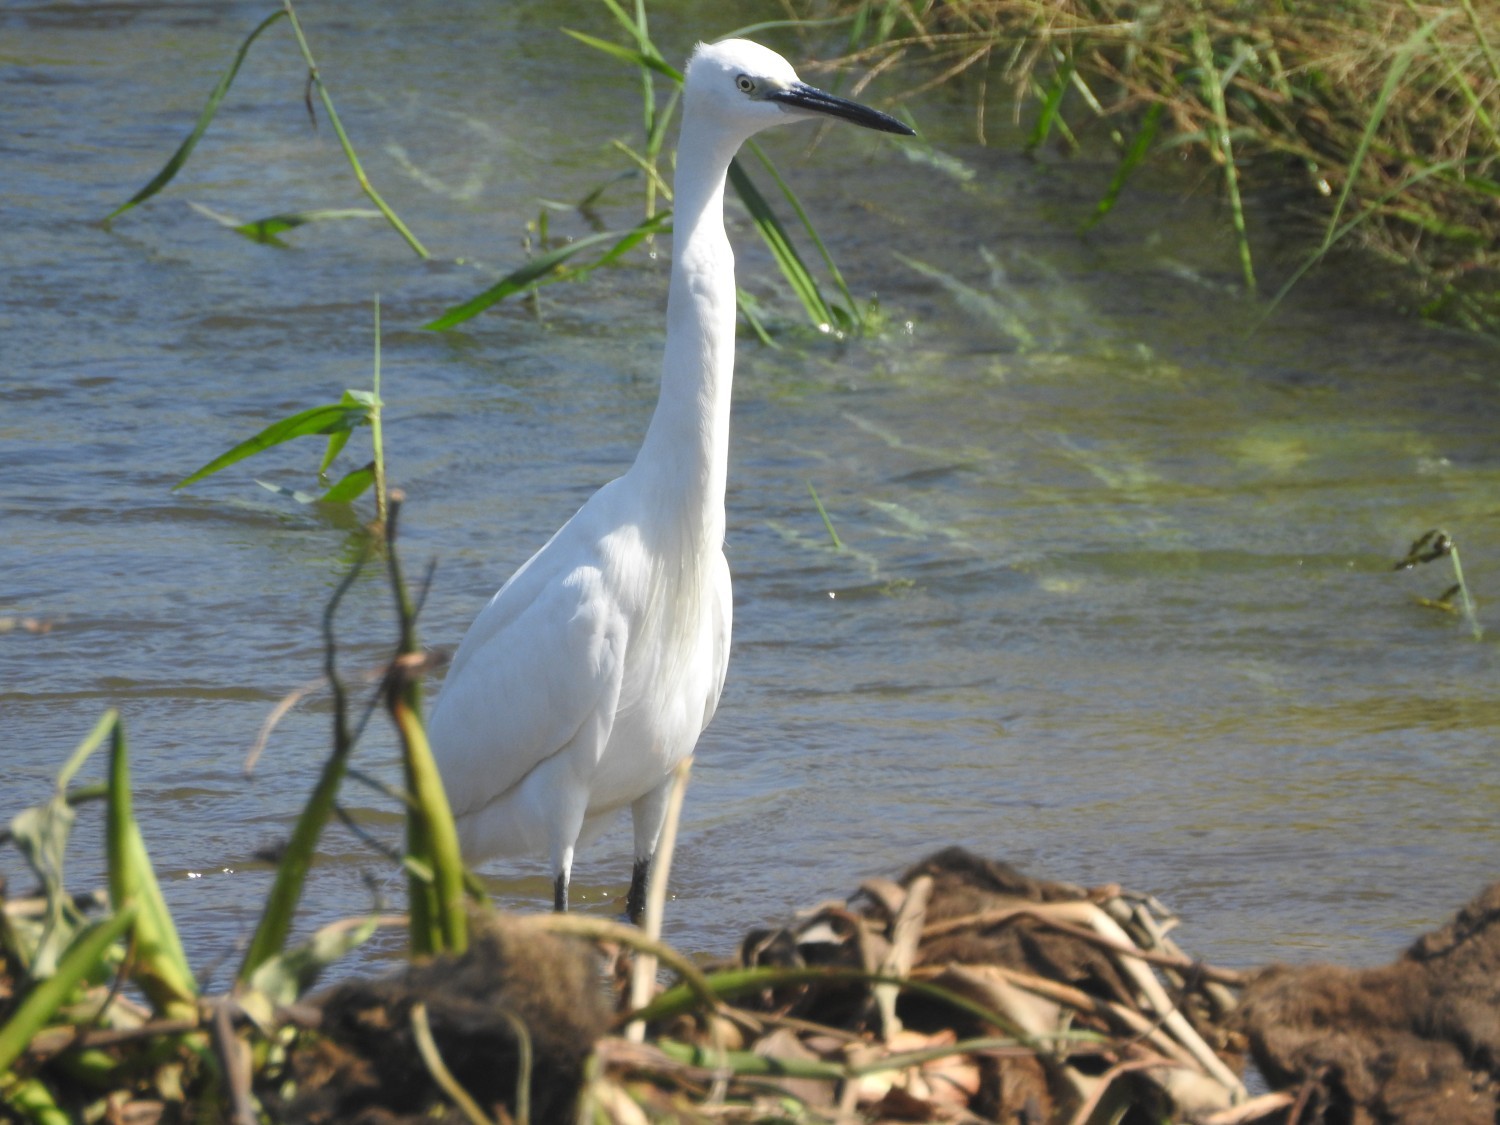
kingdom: Animalia
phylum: Chordata
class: Aves
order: Pelecaniformes
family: Ardeidae
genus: Egretta
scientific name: Egretta garzetta
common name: Little egret
